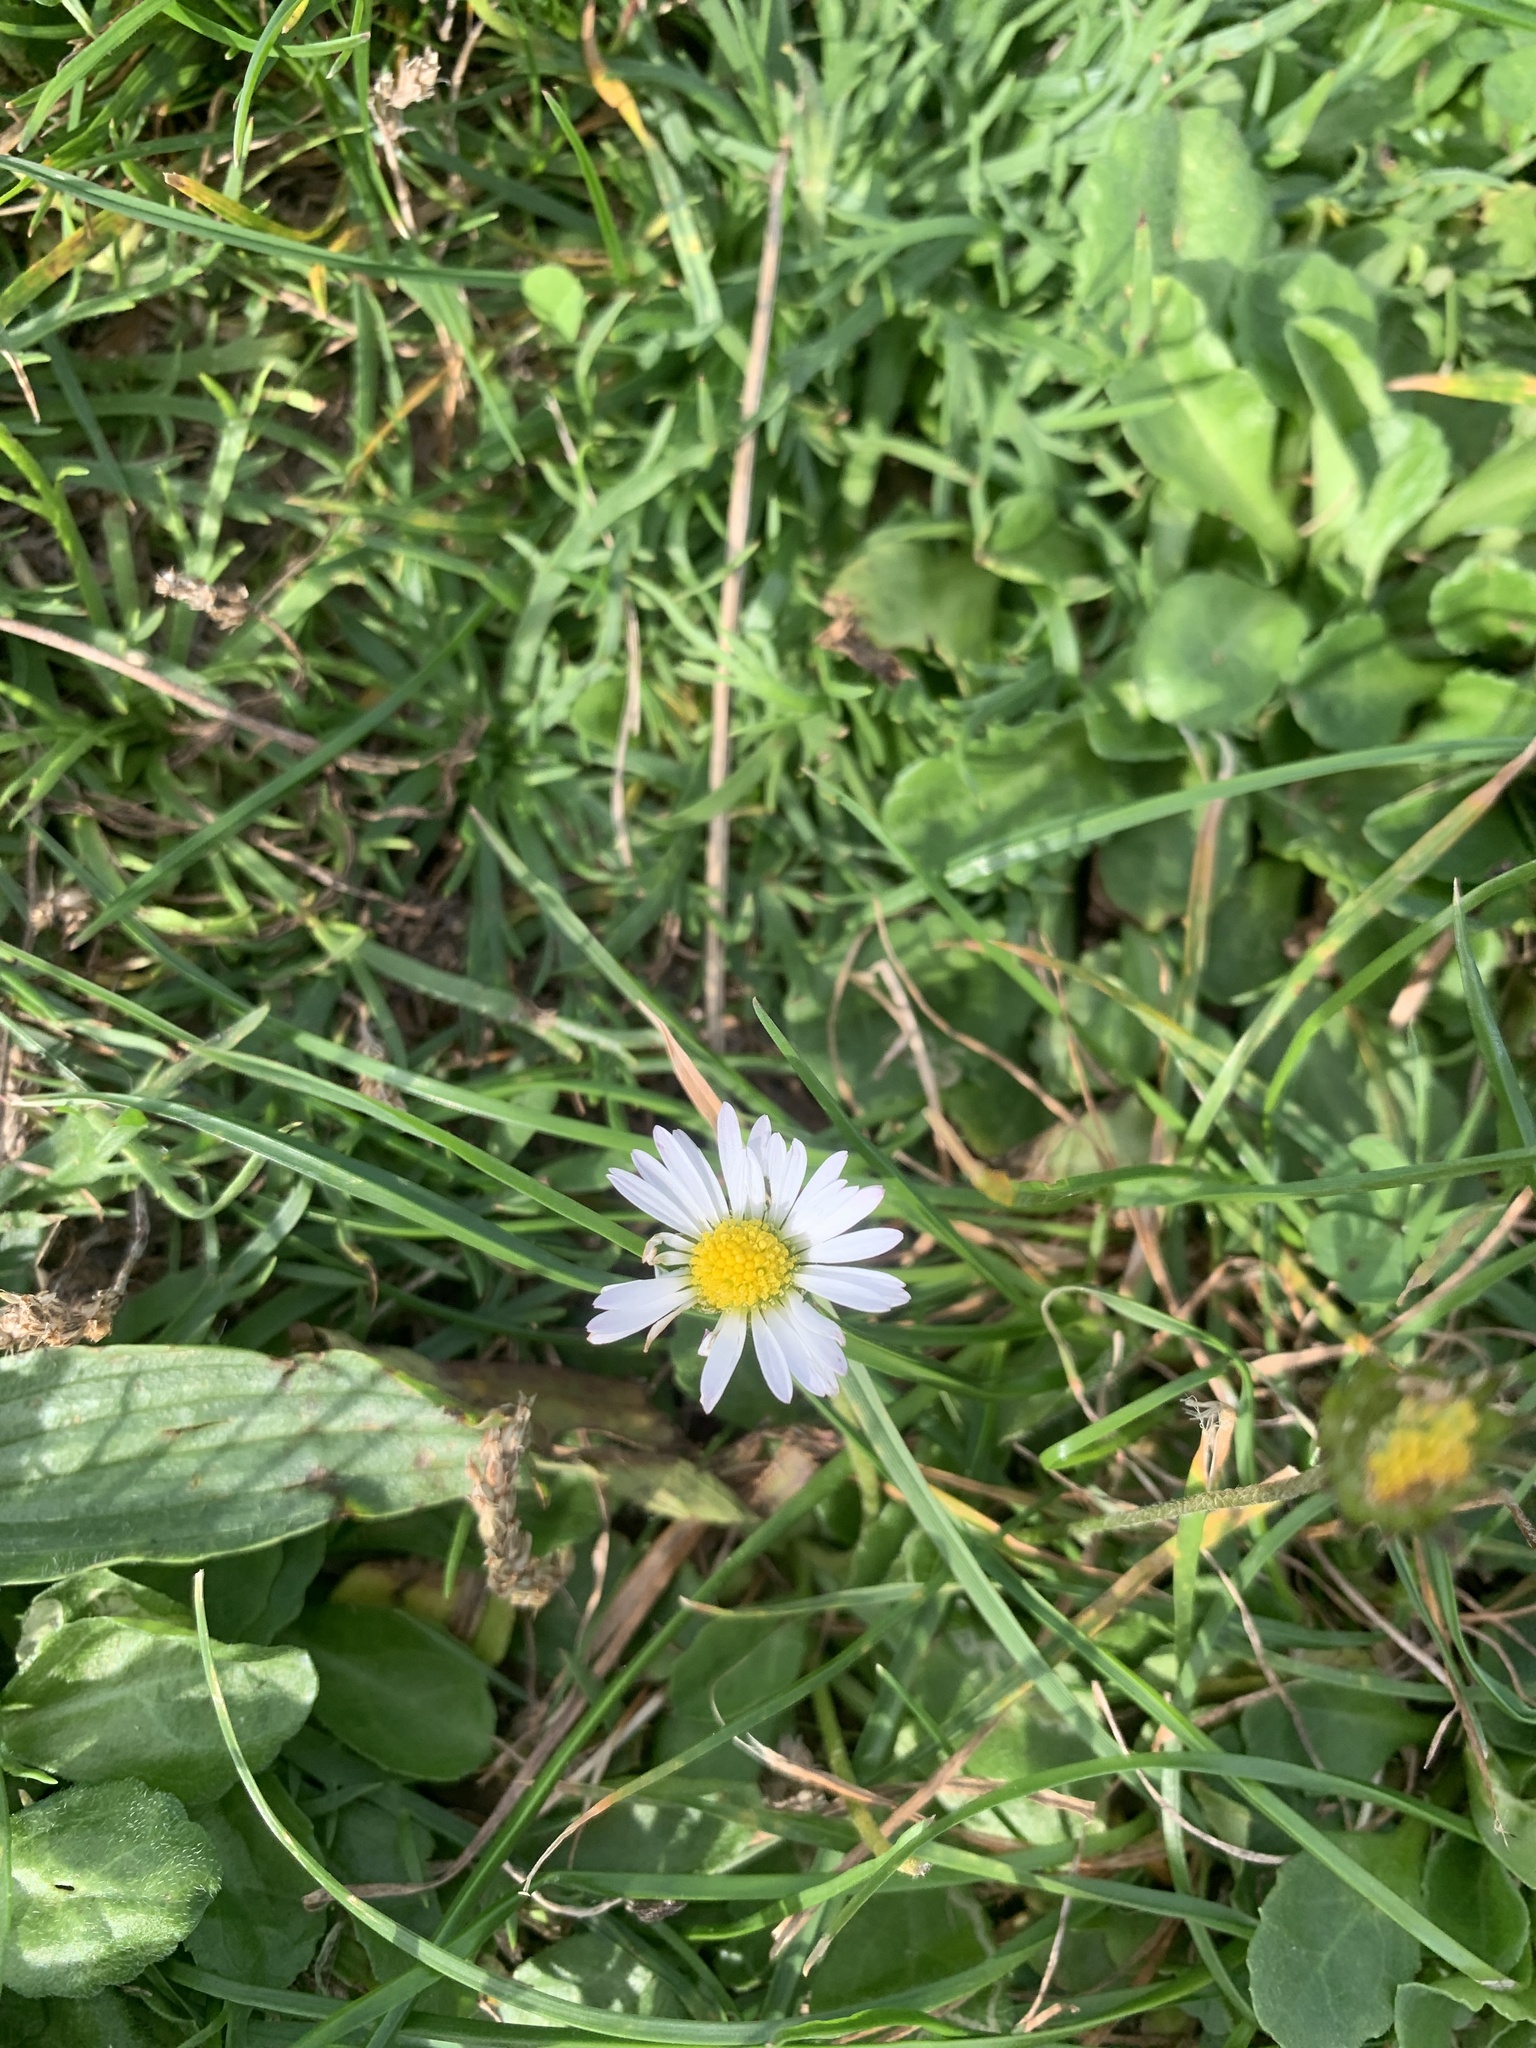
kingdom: Plantae
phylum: Tracheophyta
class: Magnoliopsida
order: Asterales
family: Asteraceae
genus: Bellis
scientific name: Bellis perennis
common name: Lawndaisy
